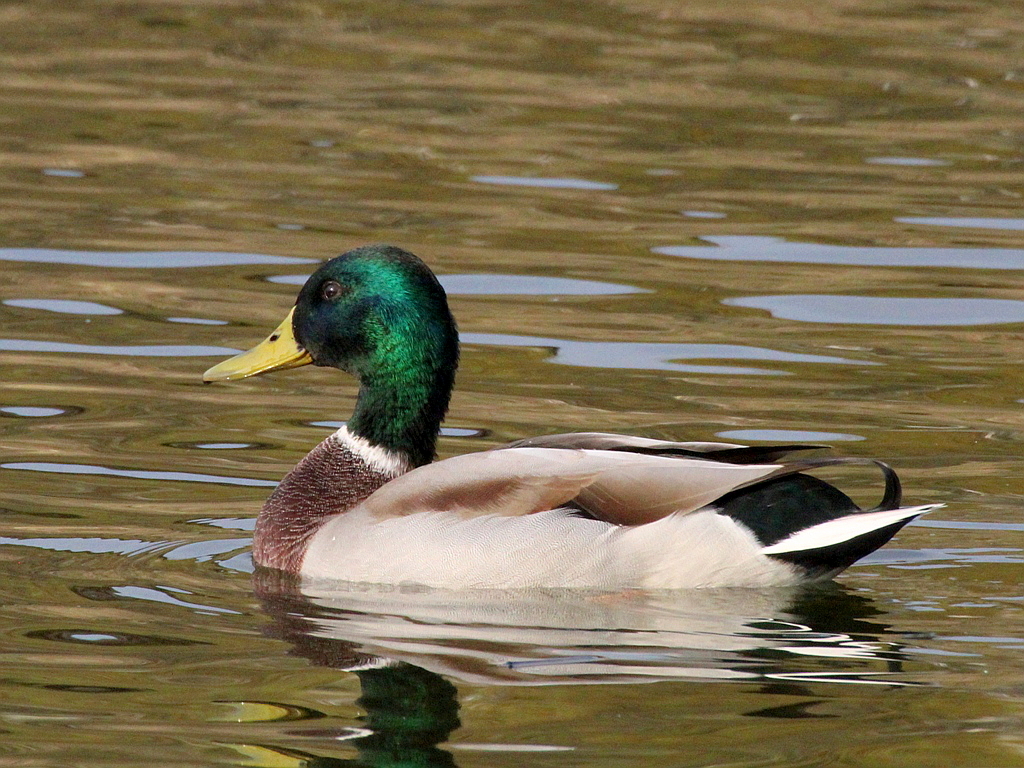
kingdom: Animalia
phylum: Chordata
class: Aves
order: Anseriformes
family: Anatidae
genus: Anas
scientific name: Anas platyrhynchos
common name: Mallard
